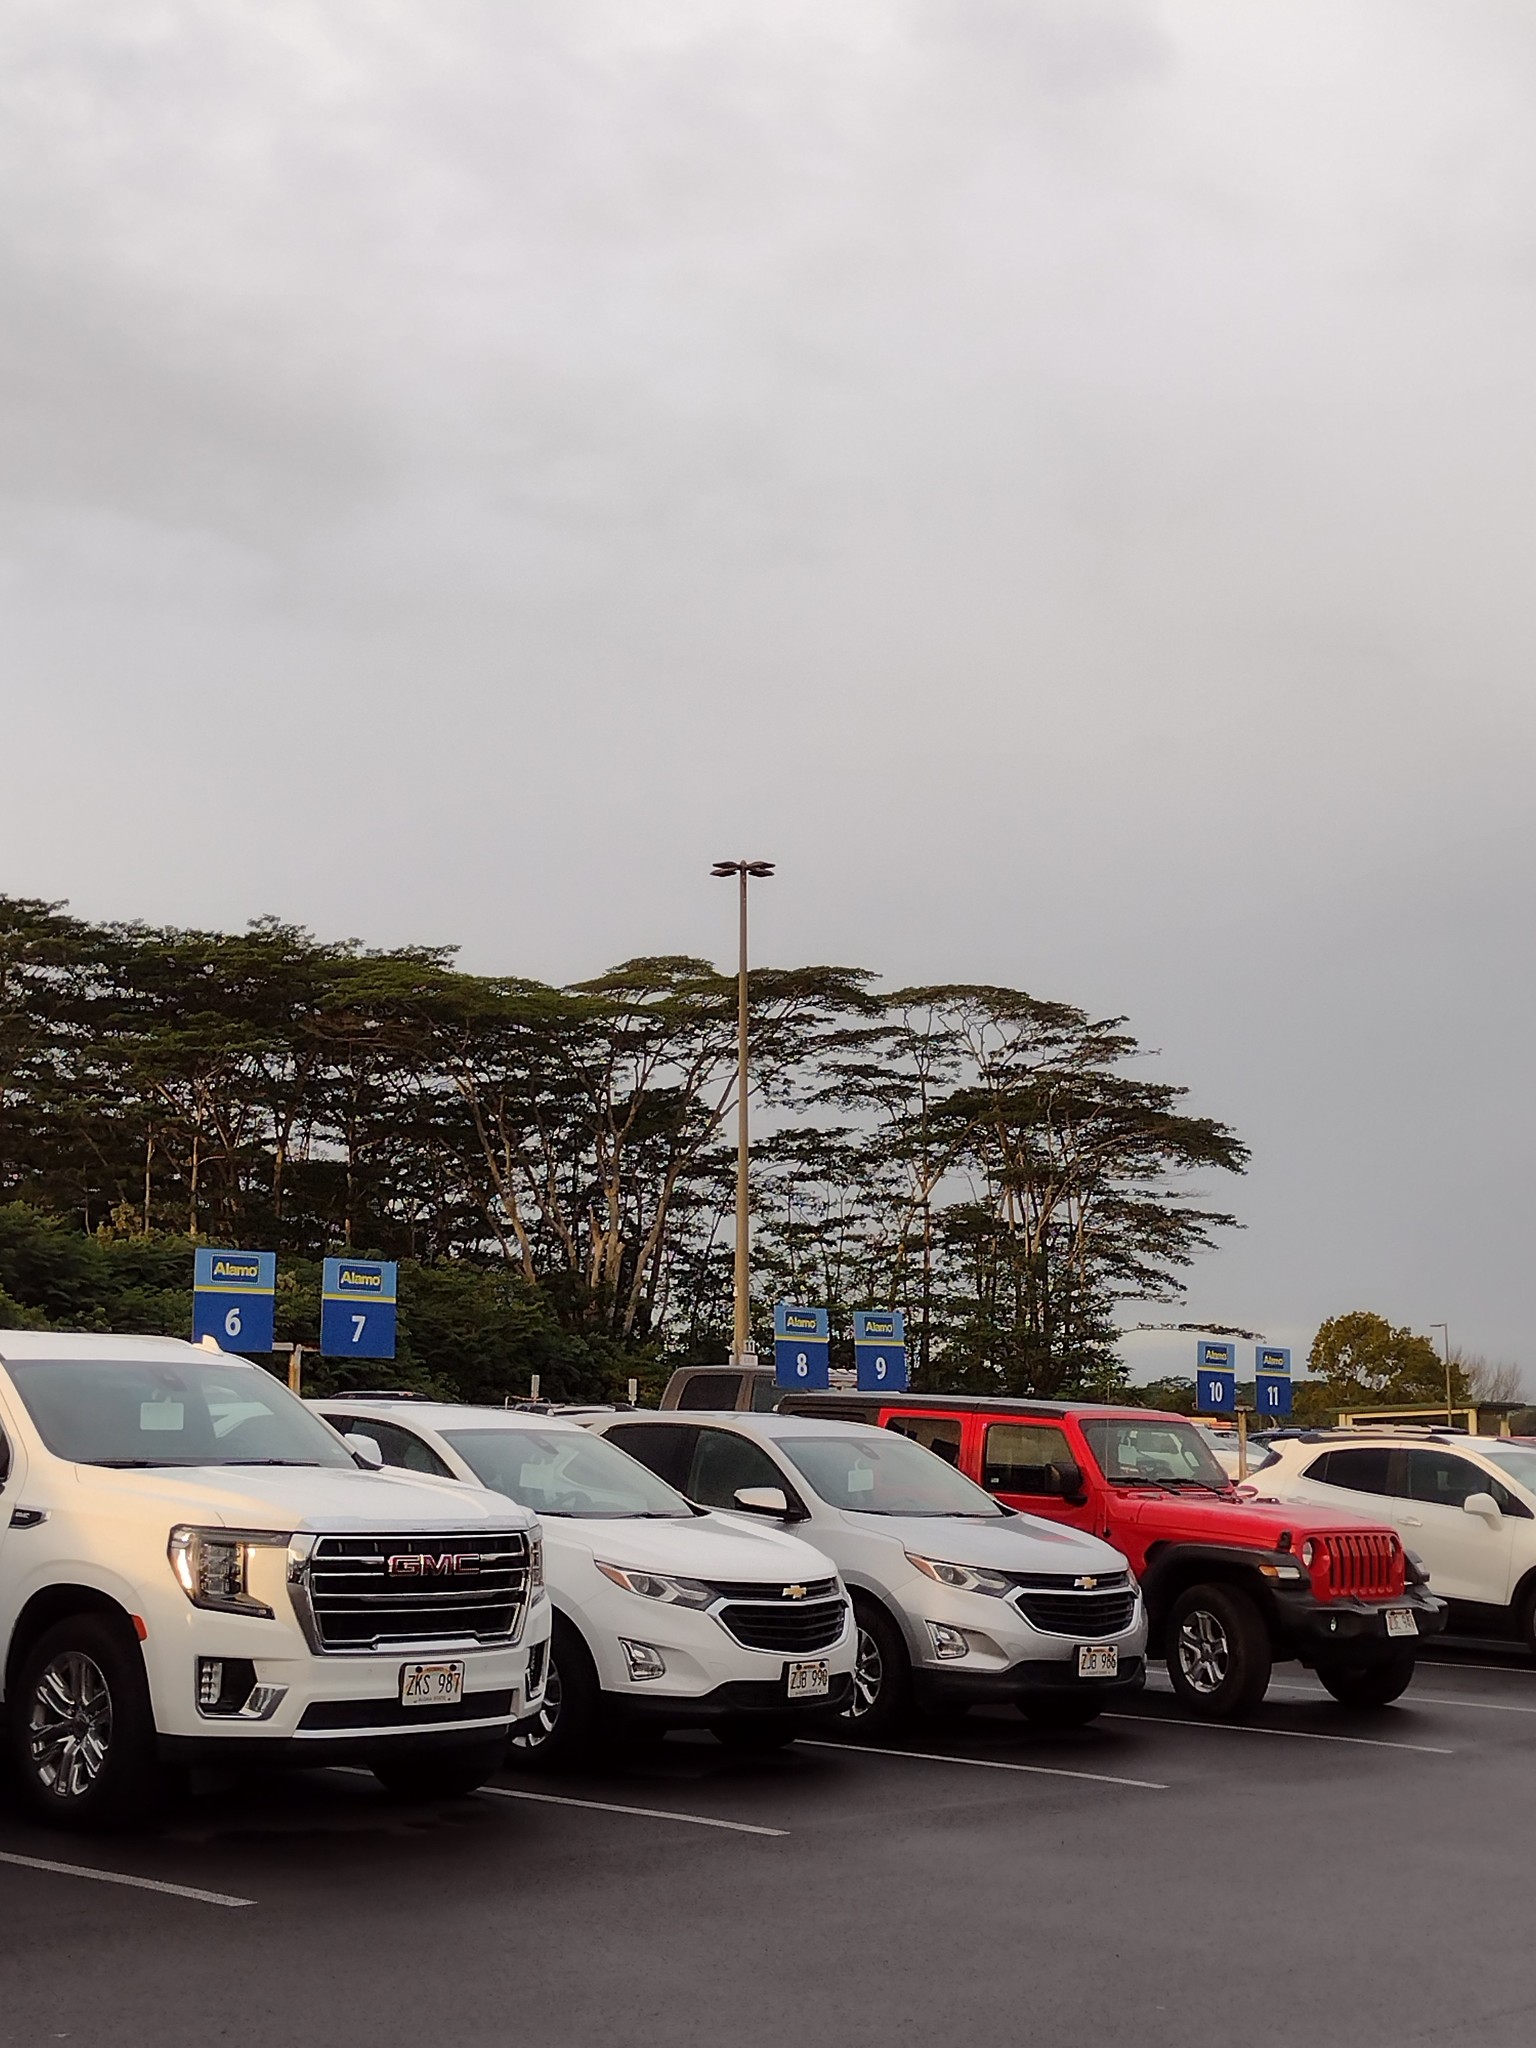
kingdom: Plantae
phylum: Tracheophyta
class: Magnoliopsida
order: Fabales
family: Fabaceae
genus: Falcataria
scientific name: Falcataria falcata
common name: Moluccan albizia
